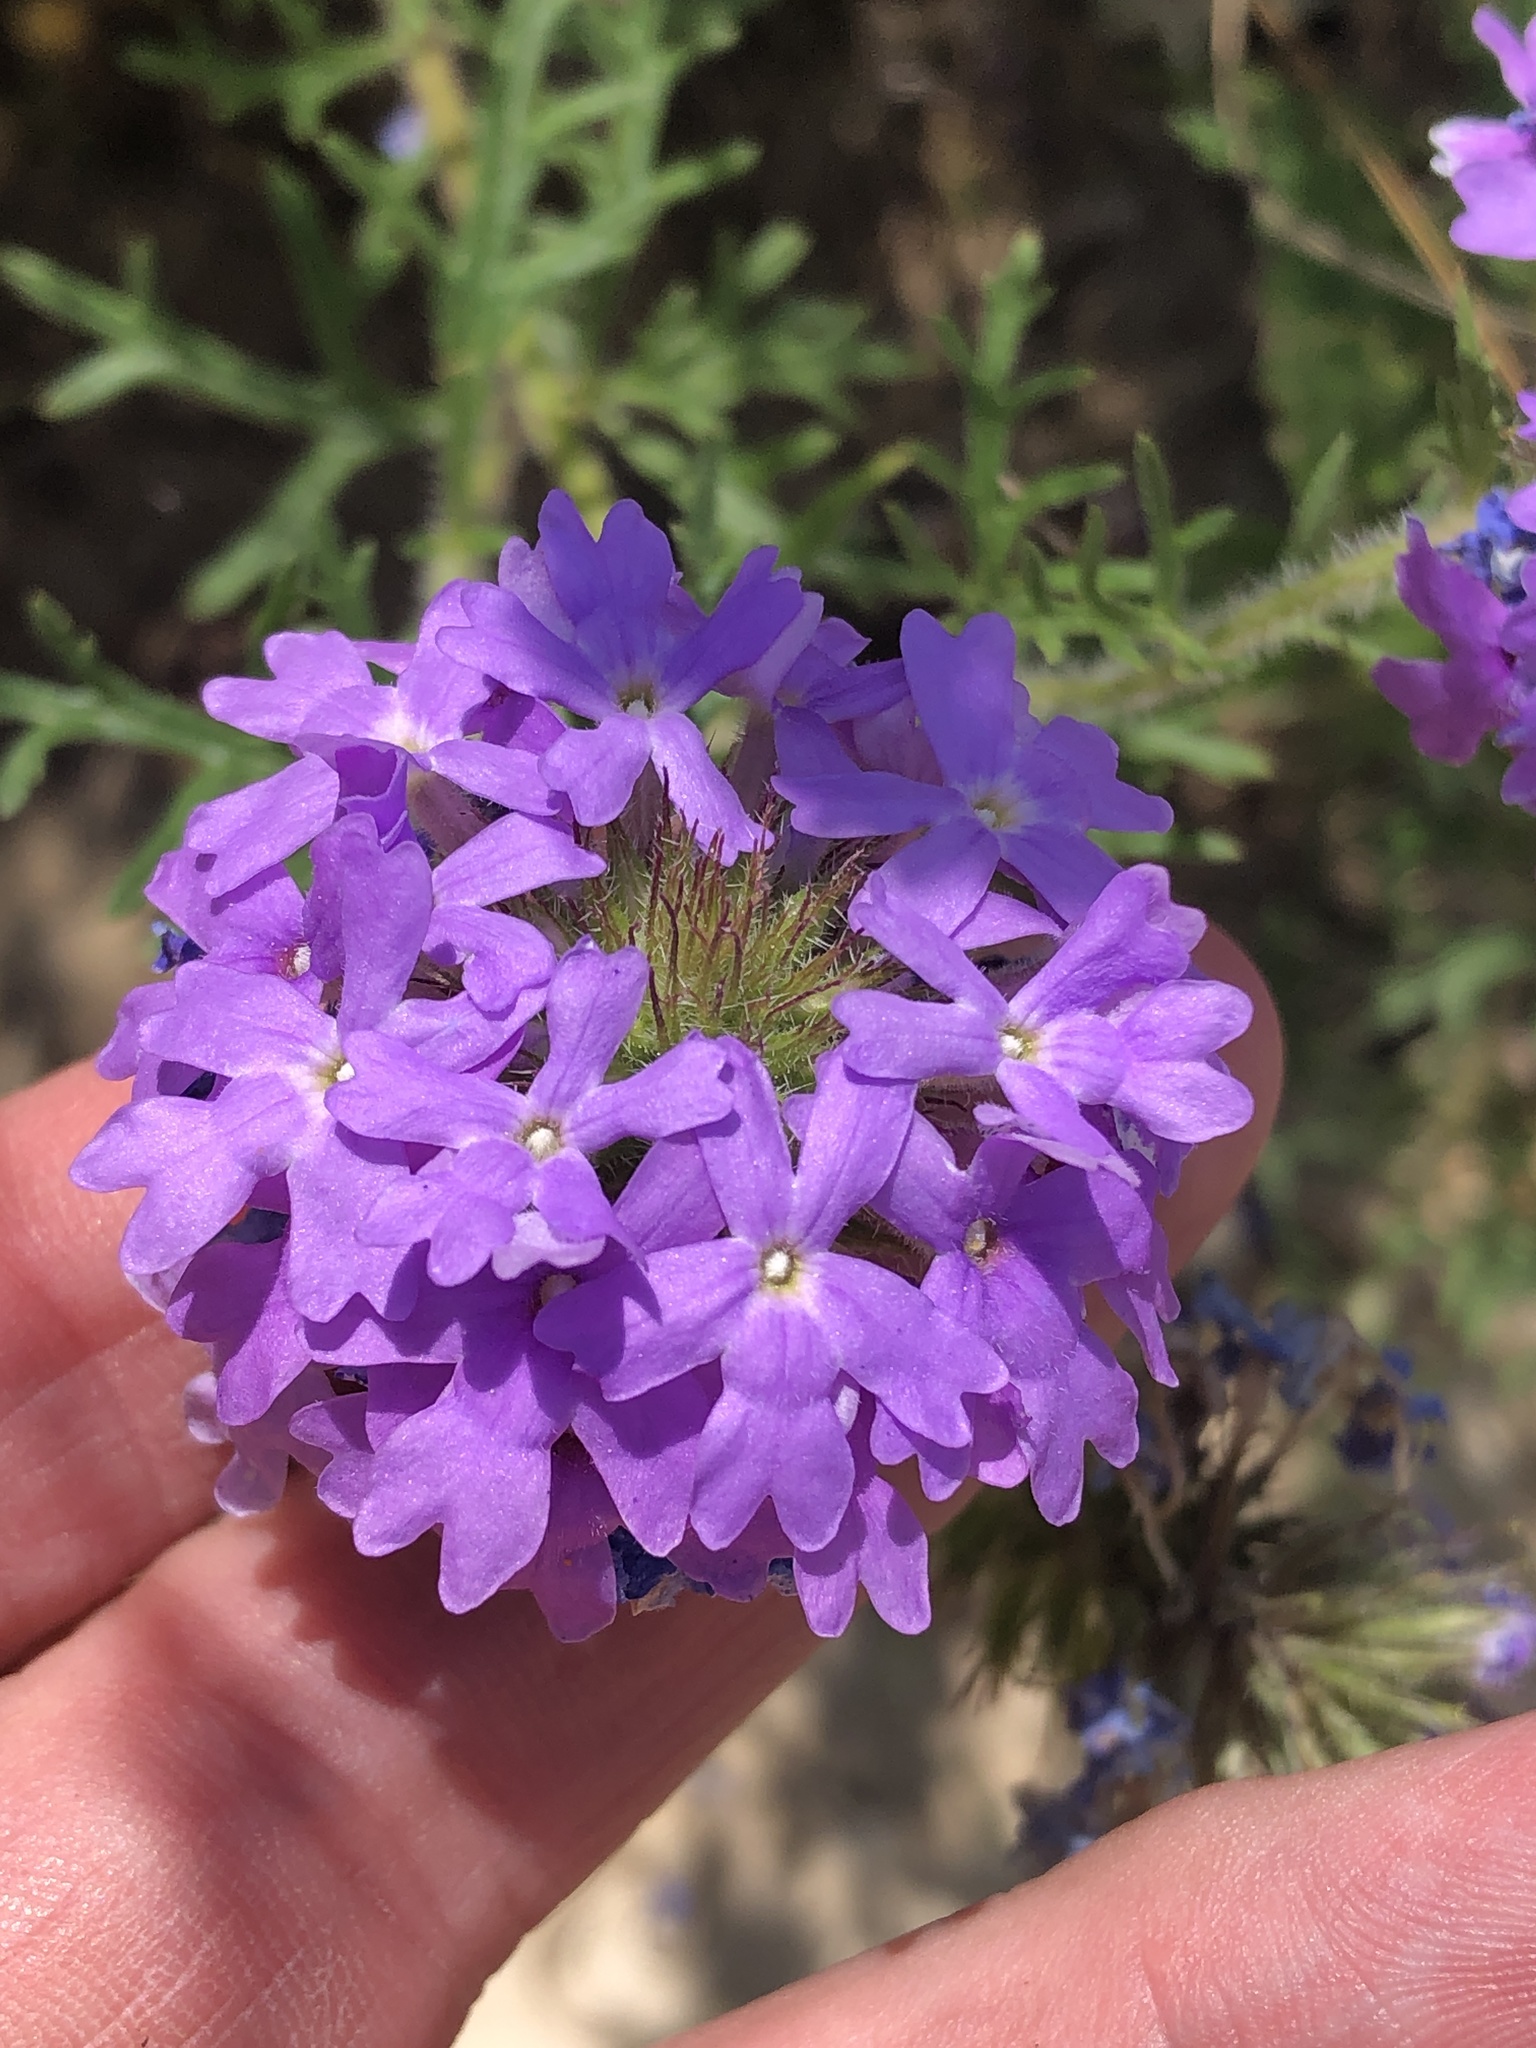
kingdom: Plantae
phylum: Tracheophyta
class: Magnoliopsida
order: Lamiales
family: Verbenaceae
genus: Verbena
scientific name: Verbena bipinnatifida
